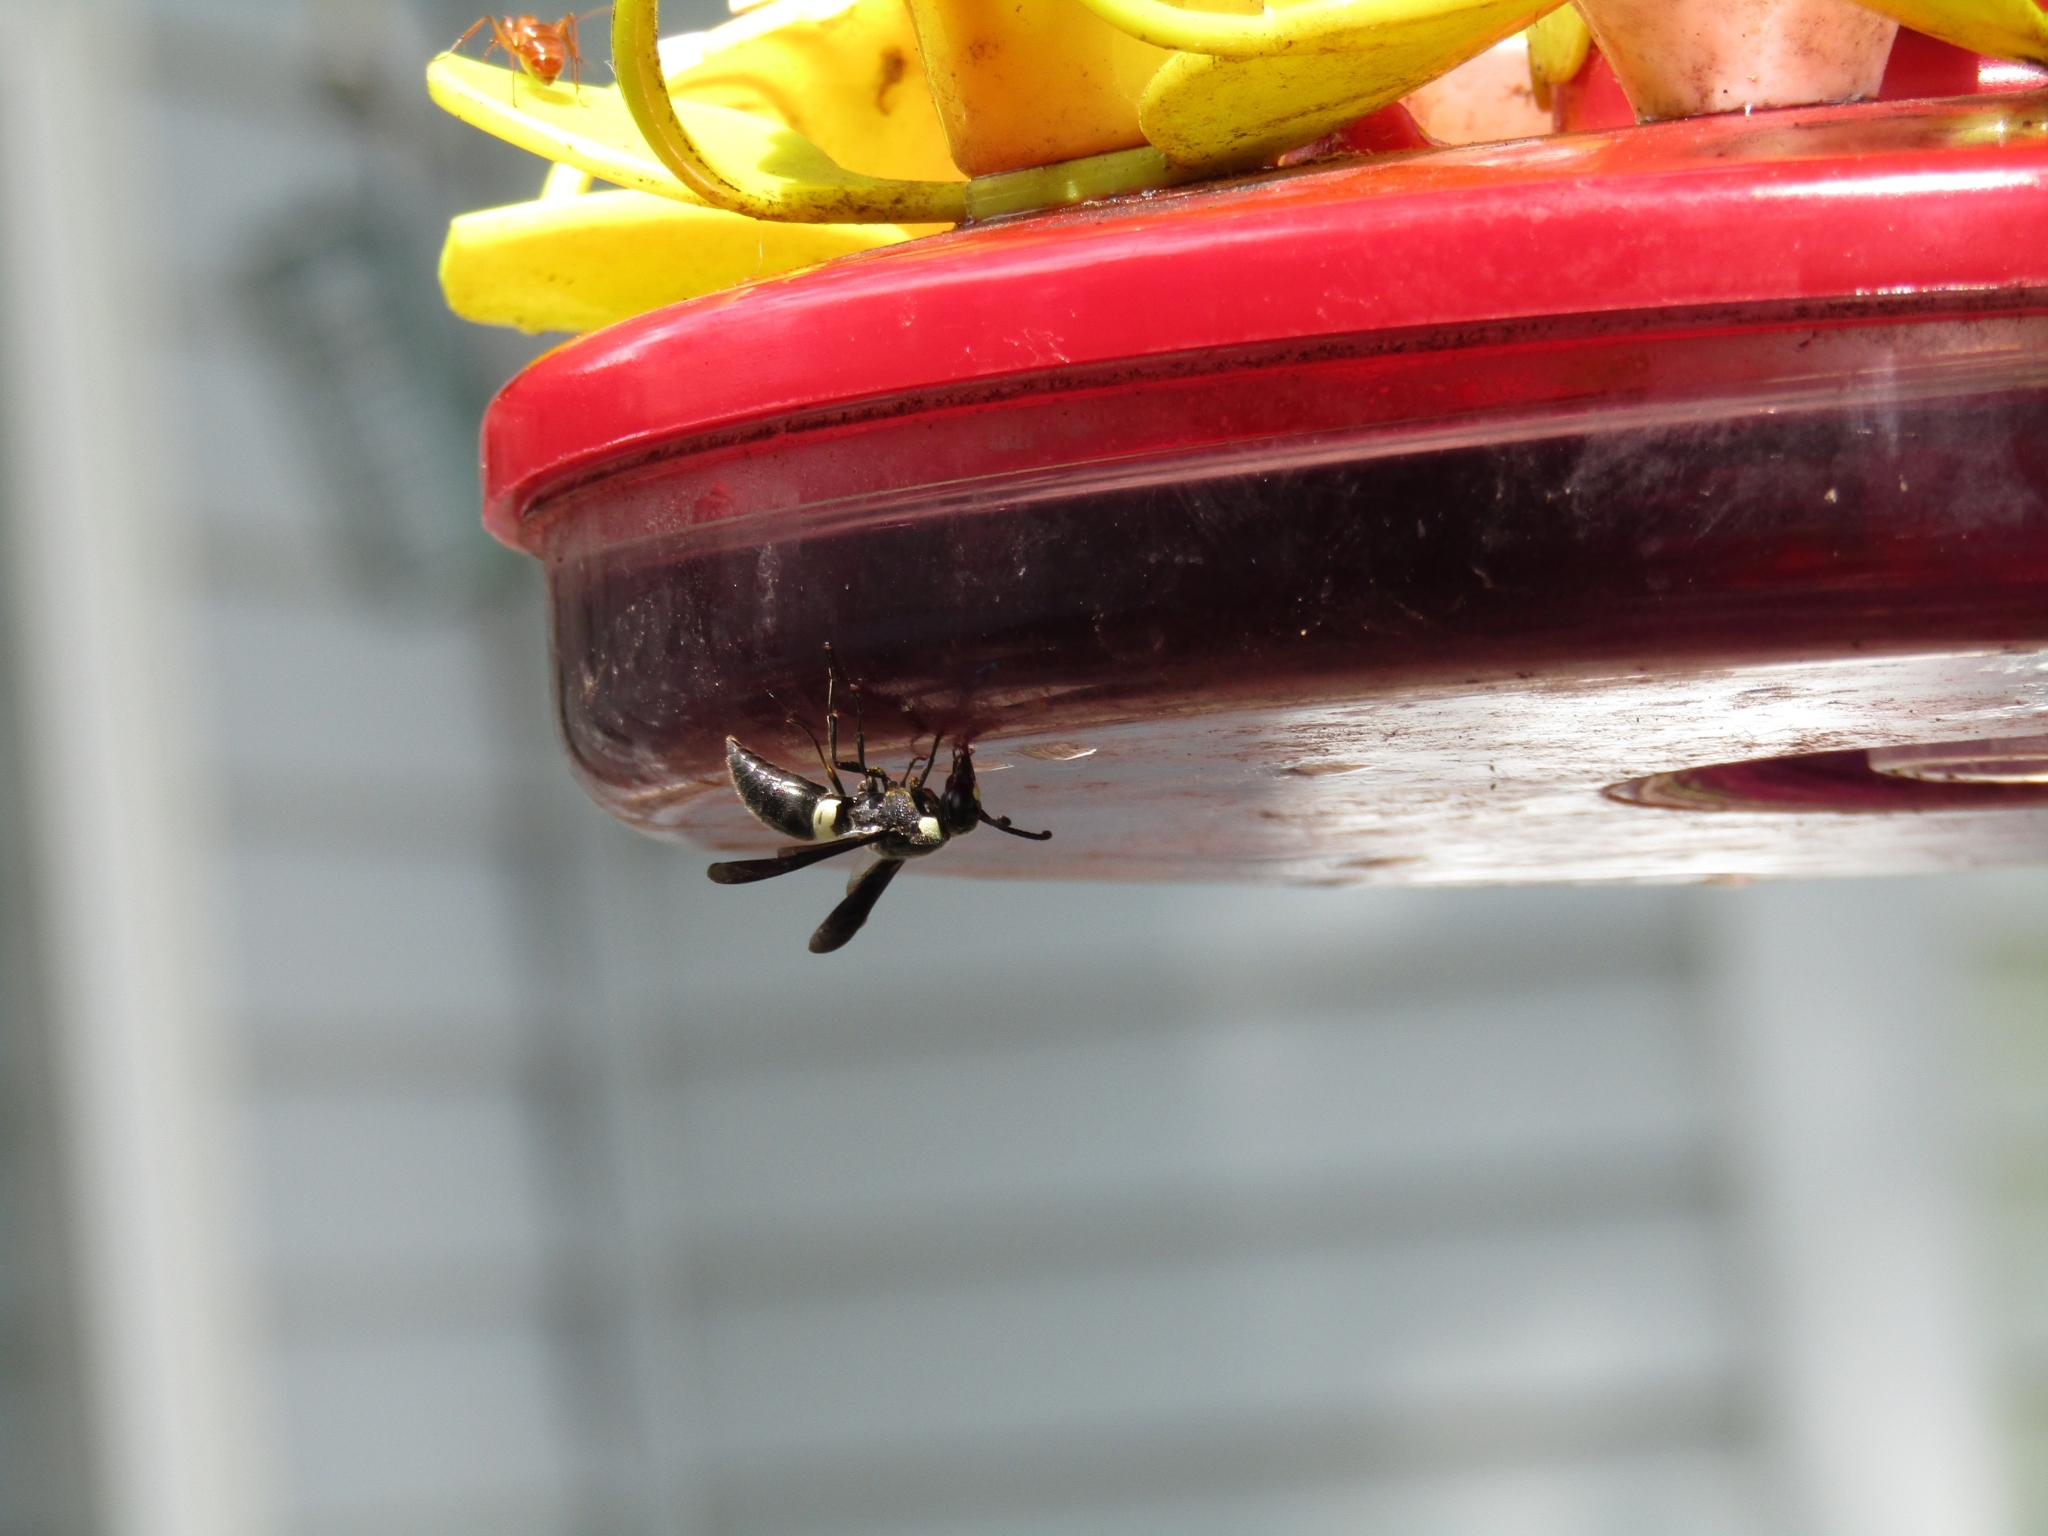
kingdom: Animalia
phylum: Arthropoda
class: Insecta
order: Hymenoptera
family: Eumenidae
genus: Monobia
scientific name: Monobia quadridens
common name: Four-toothed mason wasp
